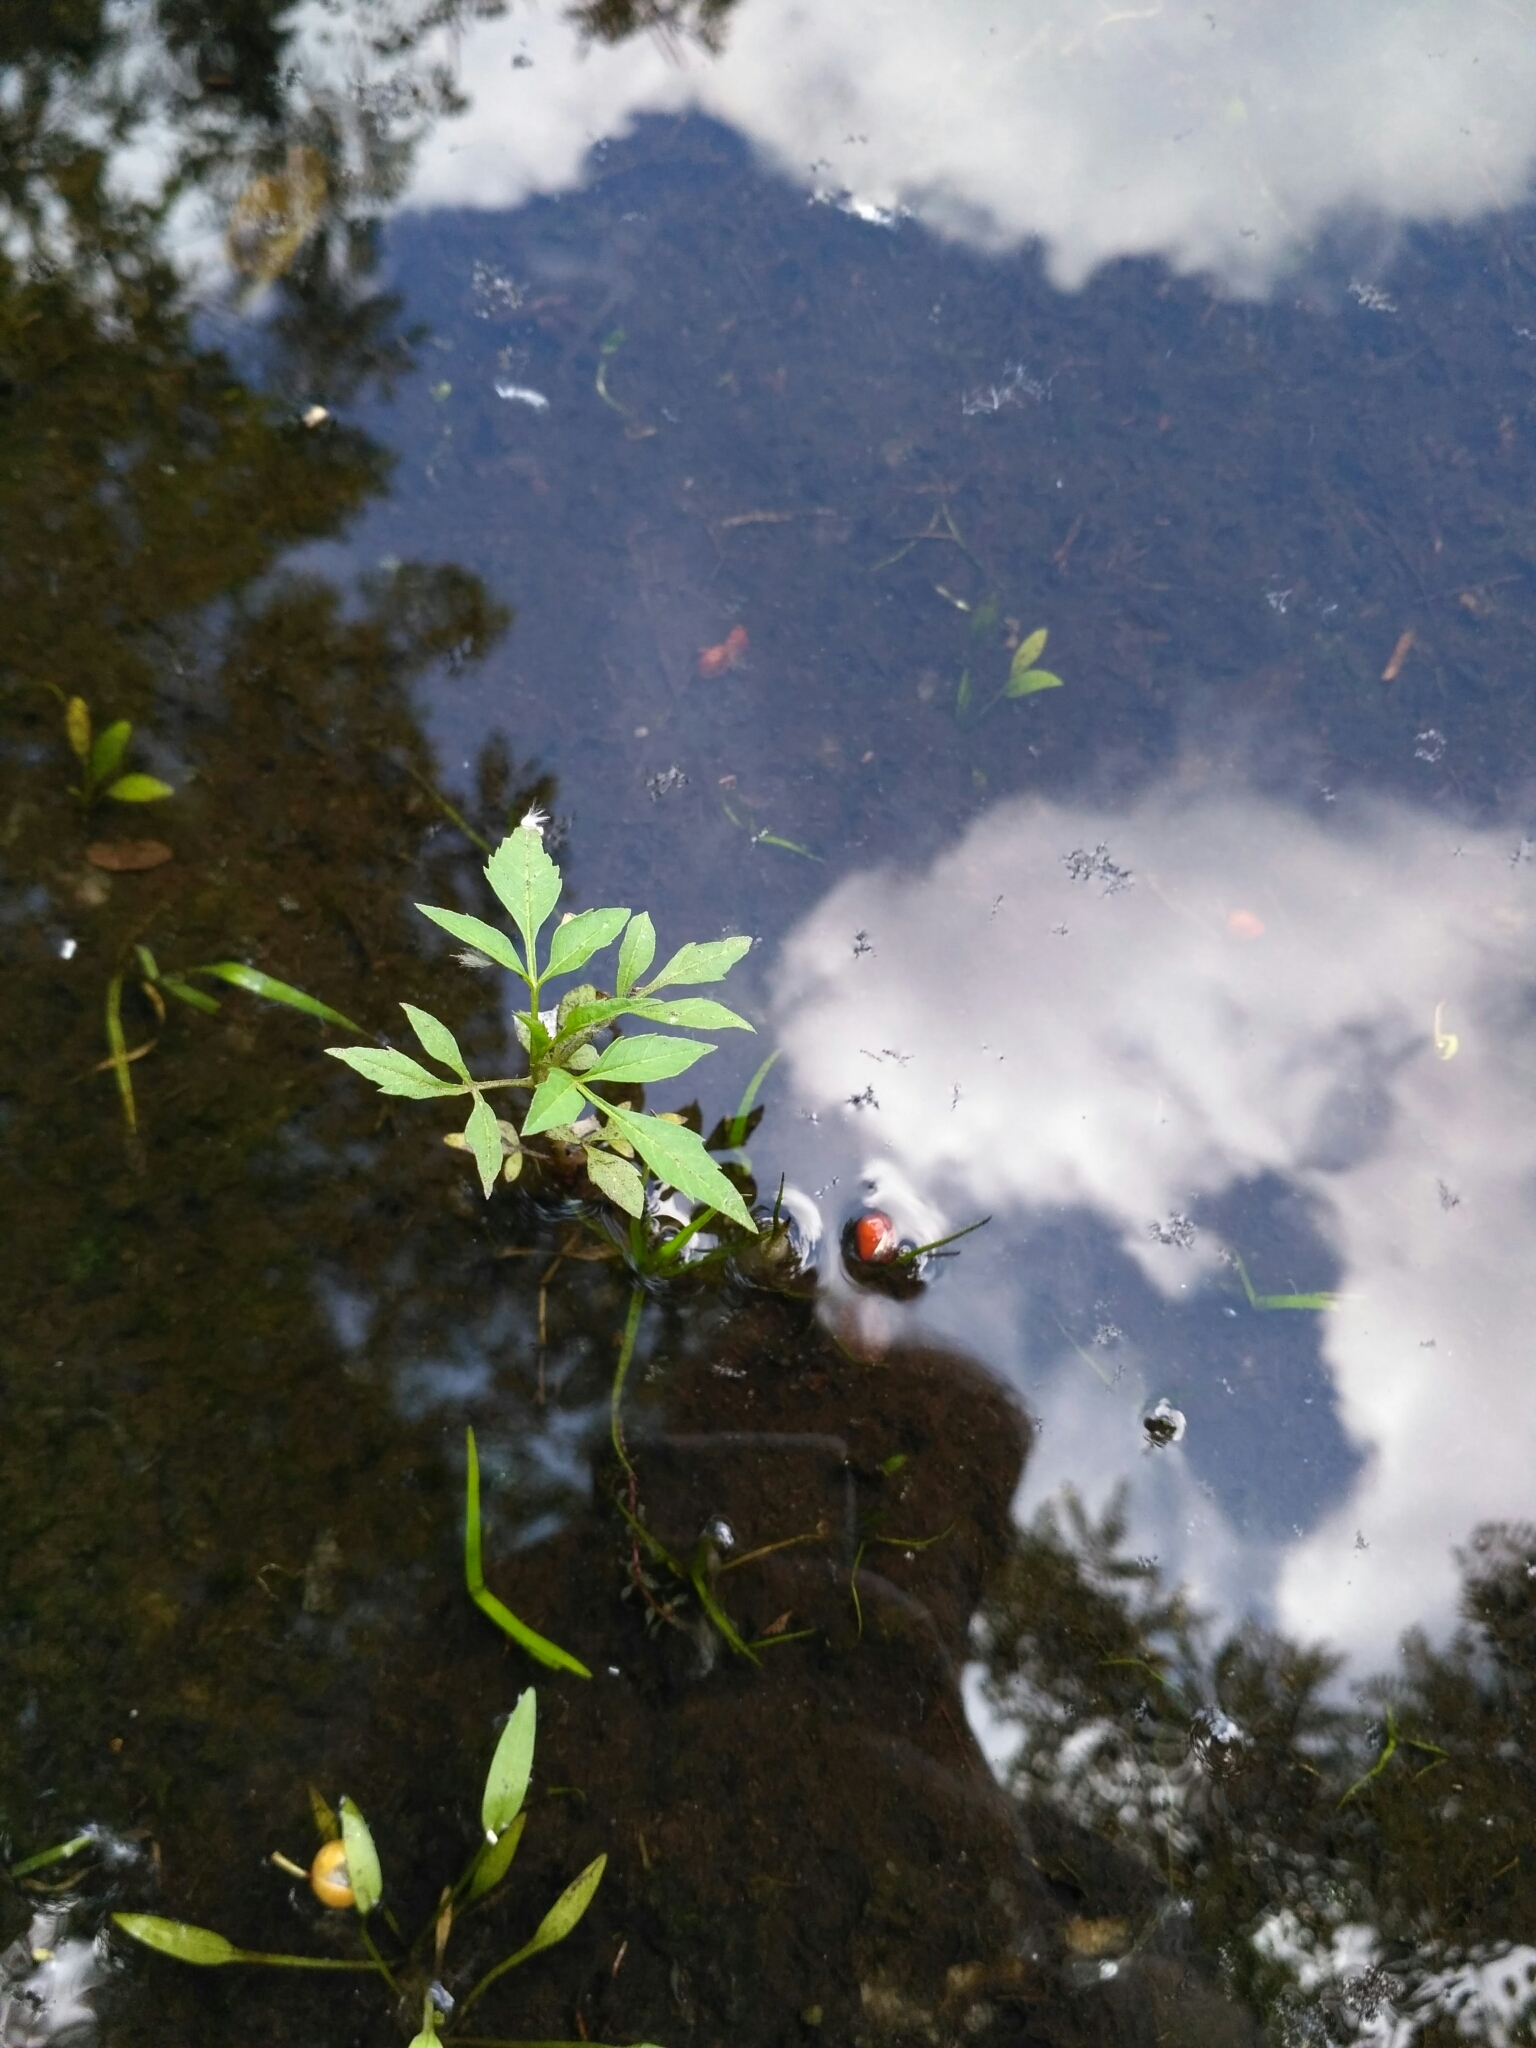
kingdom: Plantae
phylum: Tracheophyta
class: Magnoliopsida
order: Asterales
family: Asteraceae
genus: Bidens
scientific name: Bidens frondosa
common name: Beggarticks
